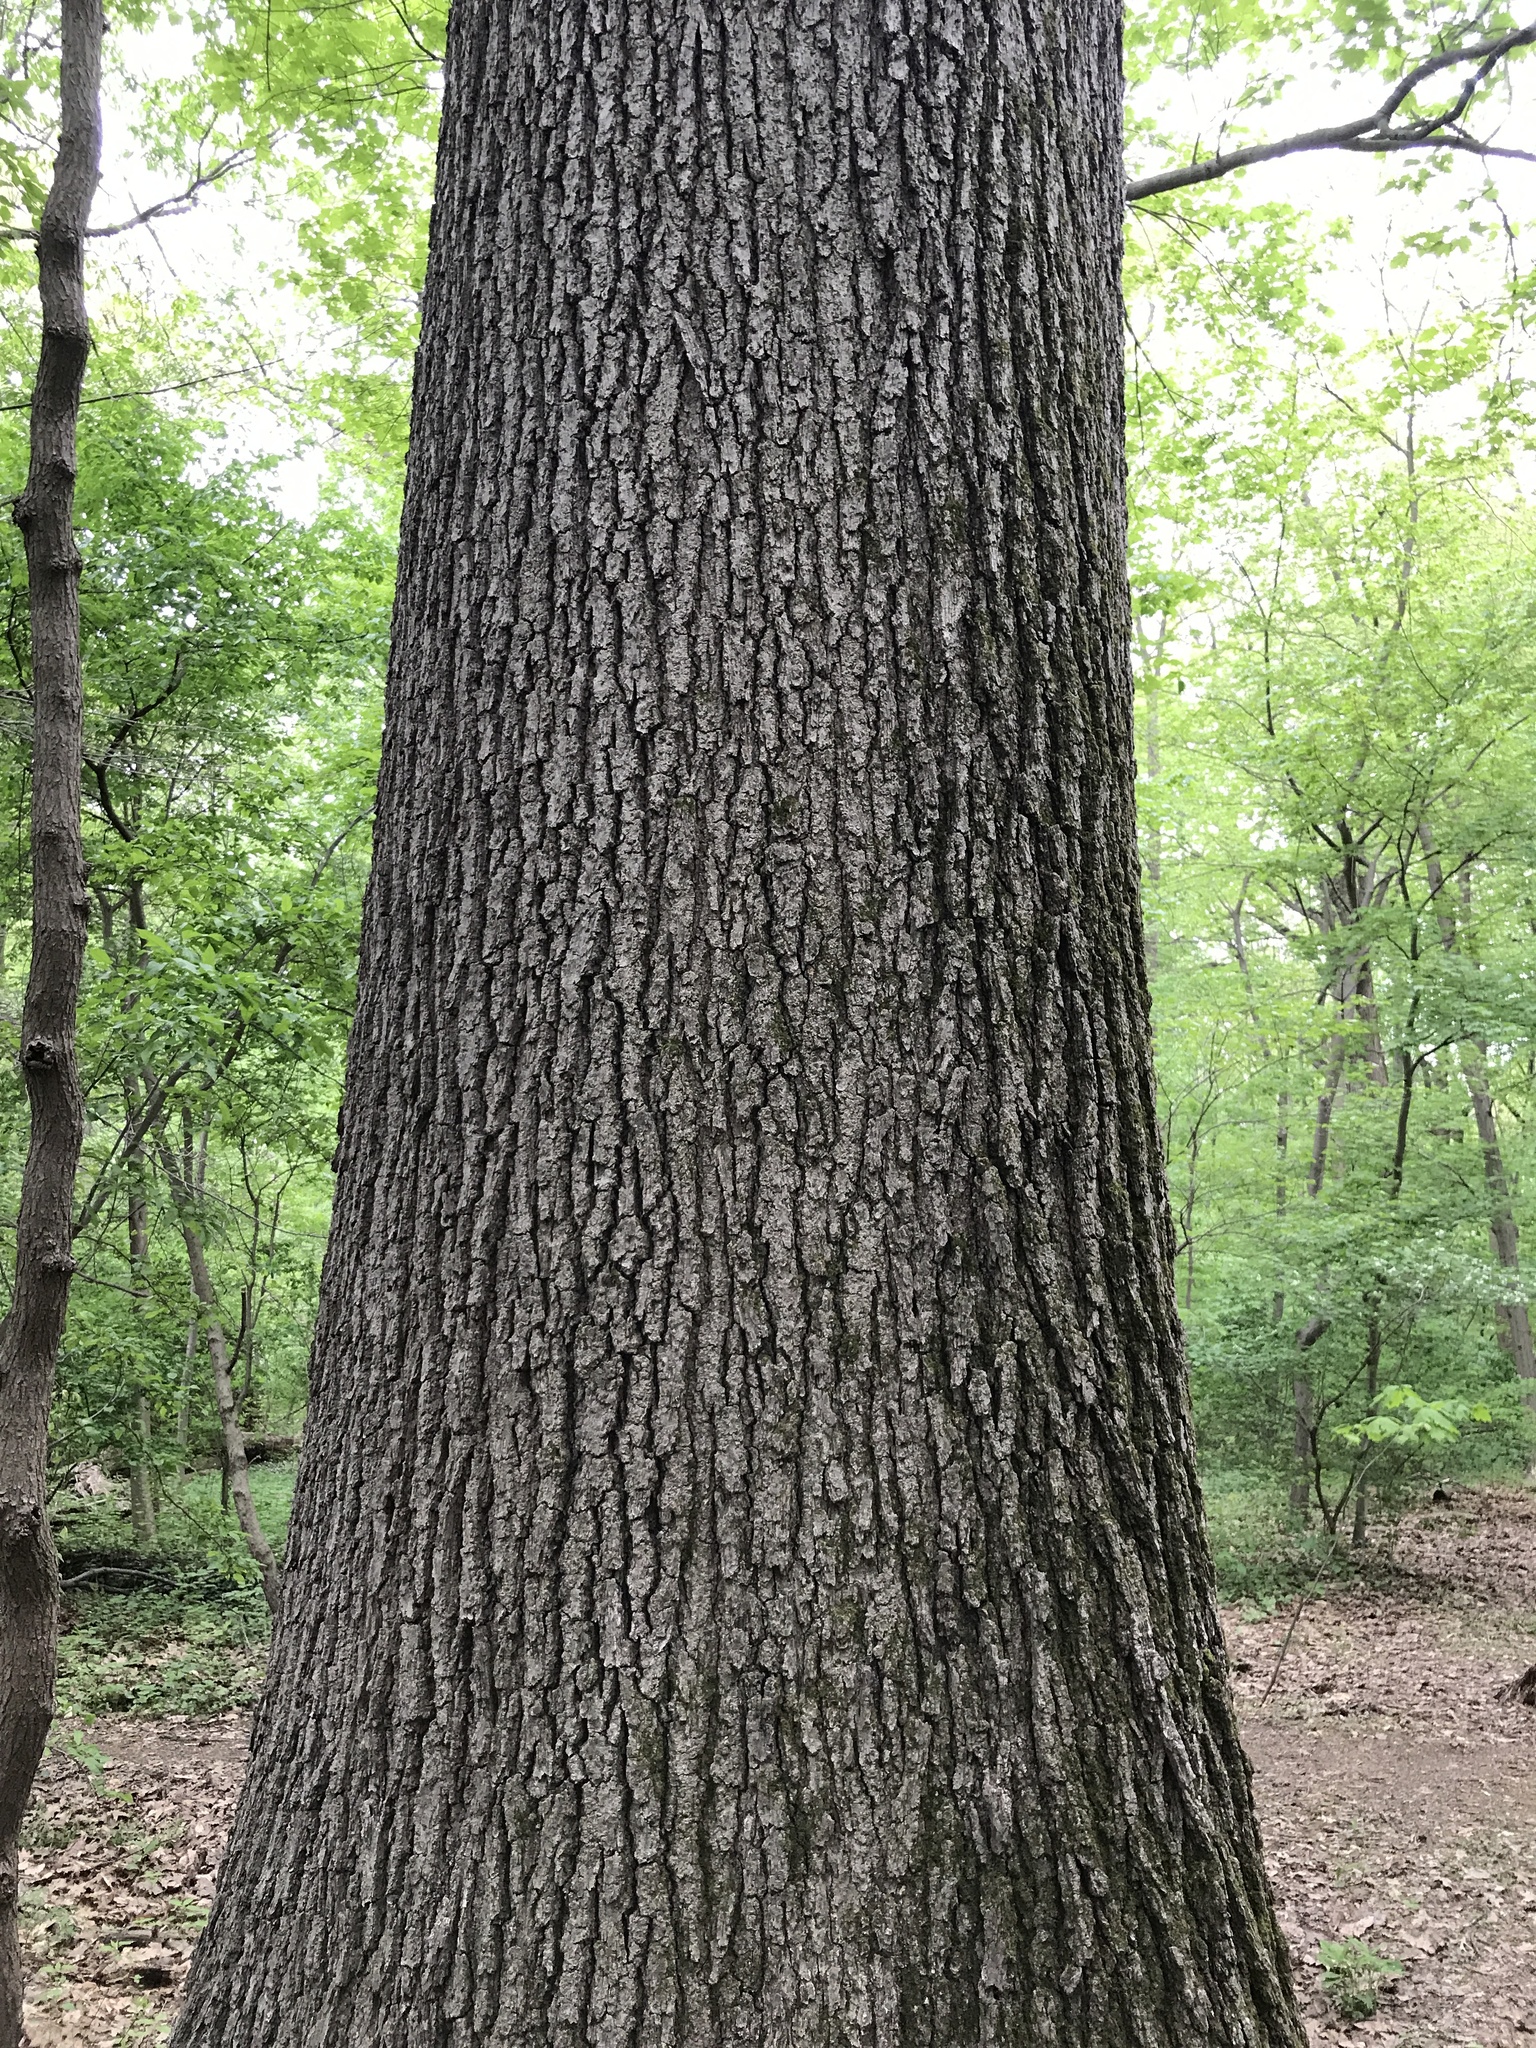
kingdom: Plantae
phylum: Tracheophyta
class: Magnoliopsida
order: Fagales
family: Fagaceae
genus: Quercus
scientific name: Quercus velutina
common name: Black oak
